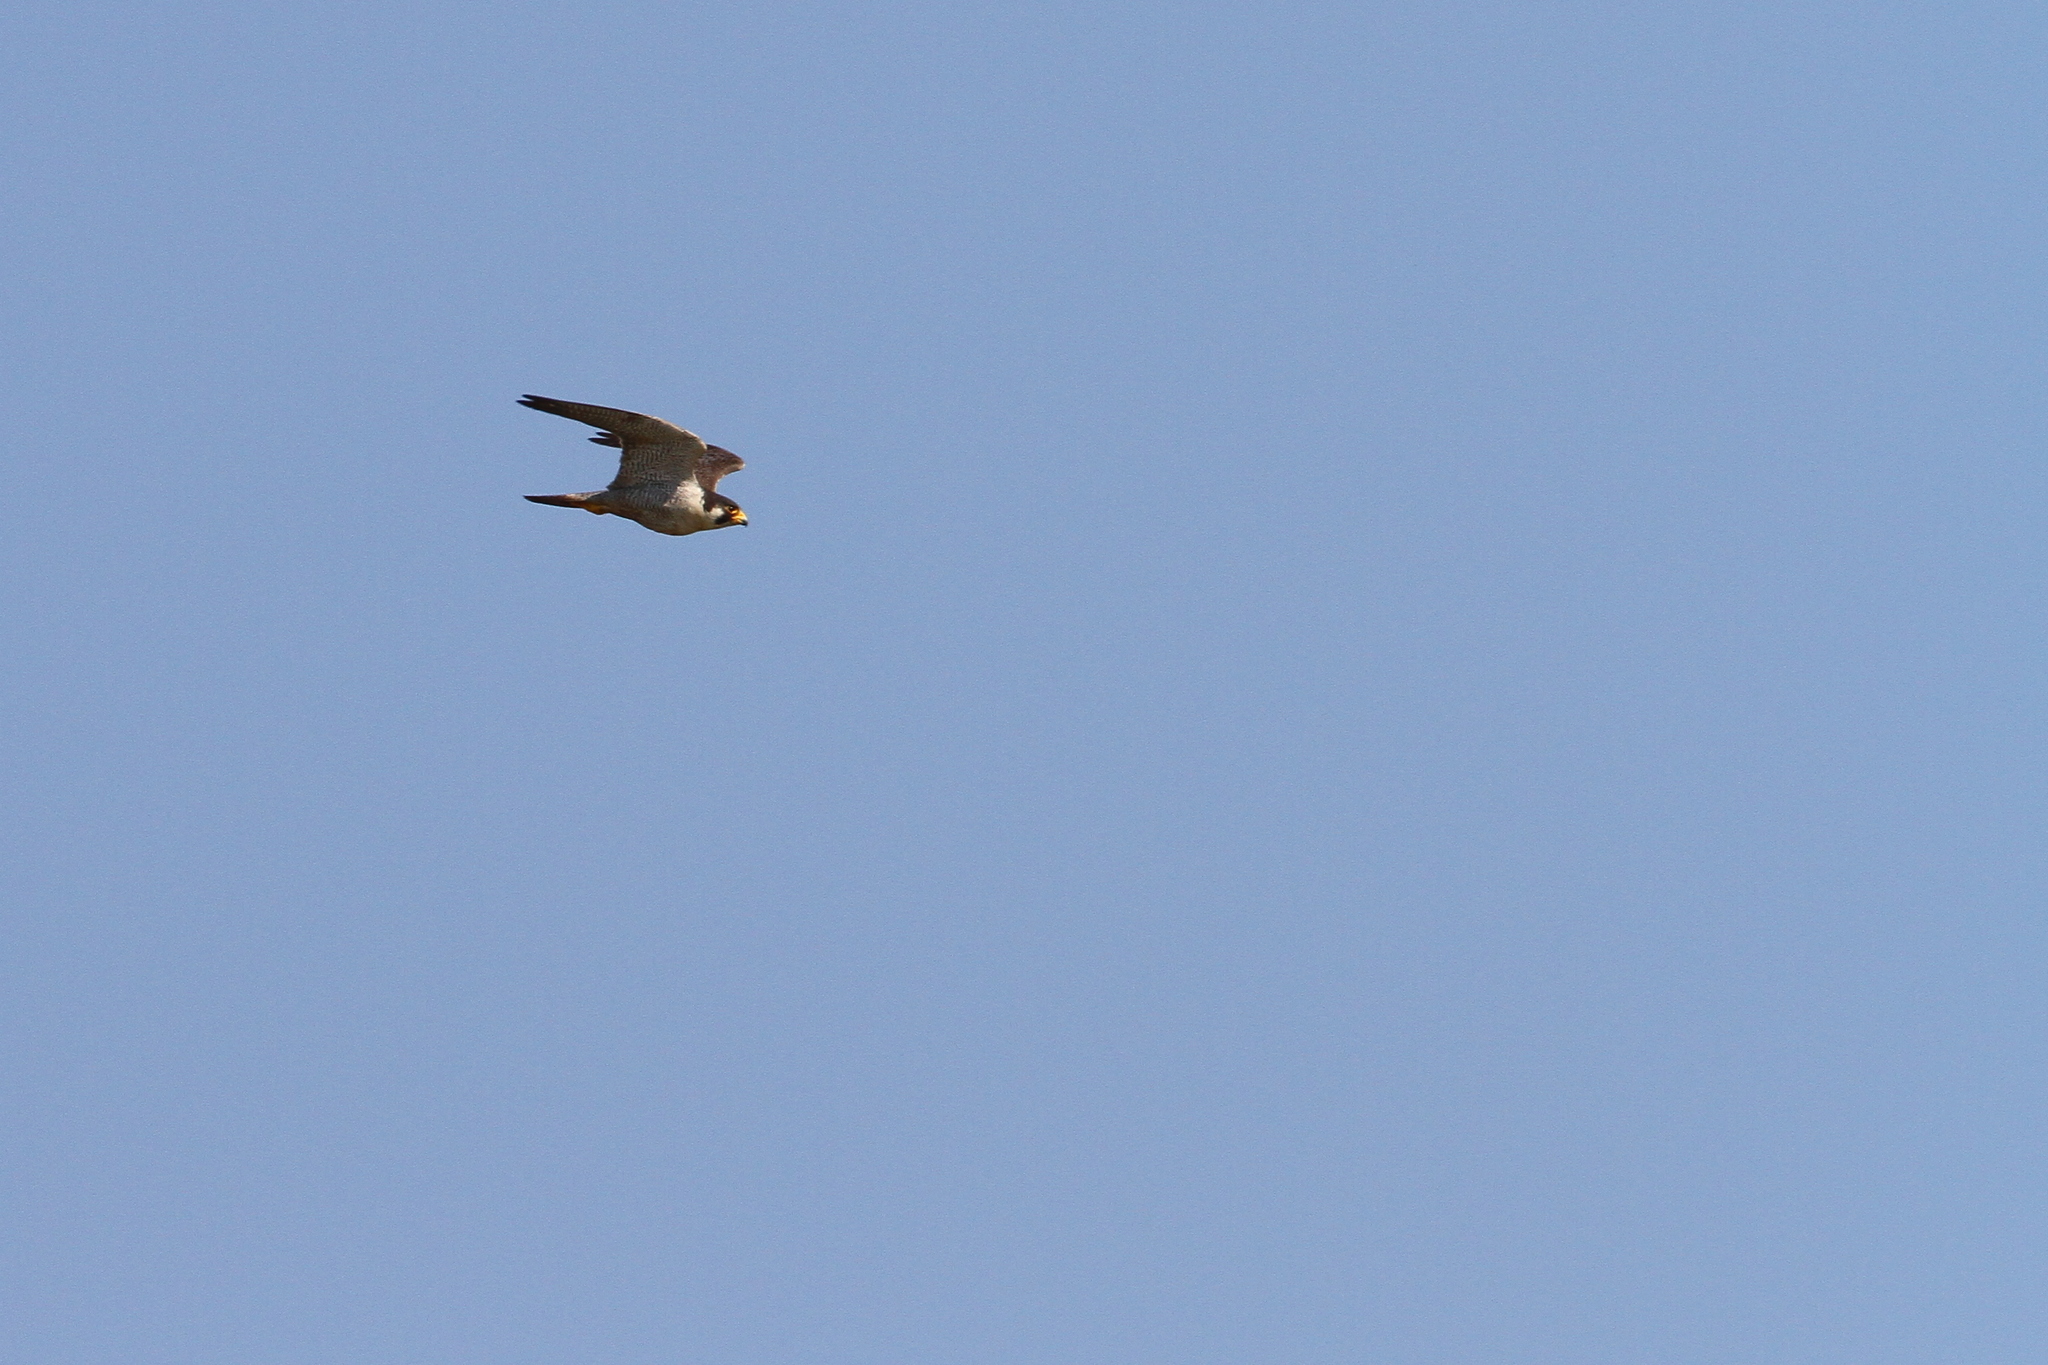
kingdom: Animalia
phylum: Chordata
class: Aves
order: Falconiformes
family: Falconidae
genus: Falco
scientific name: Falco peregrinus
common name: Peregrine falcon
